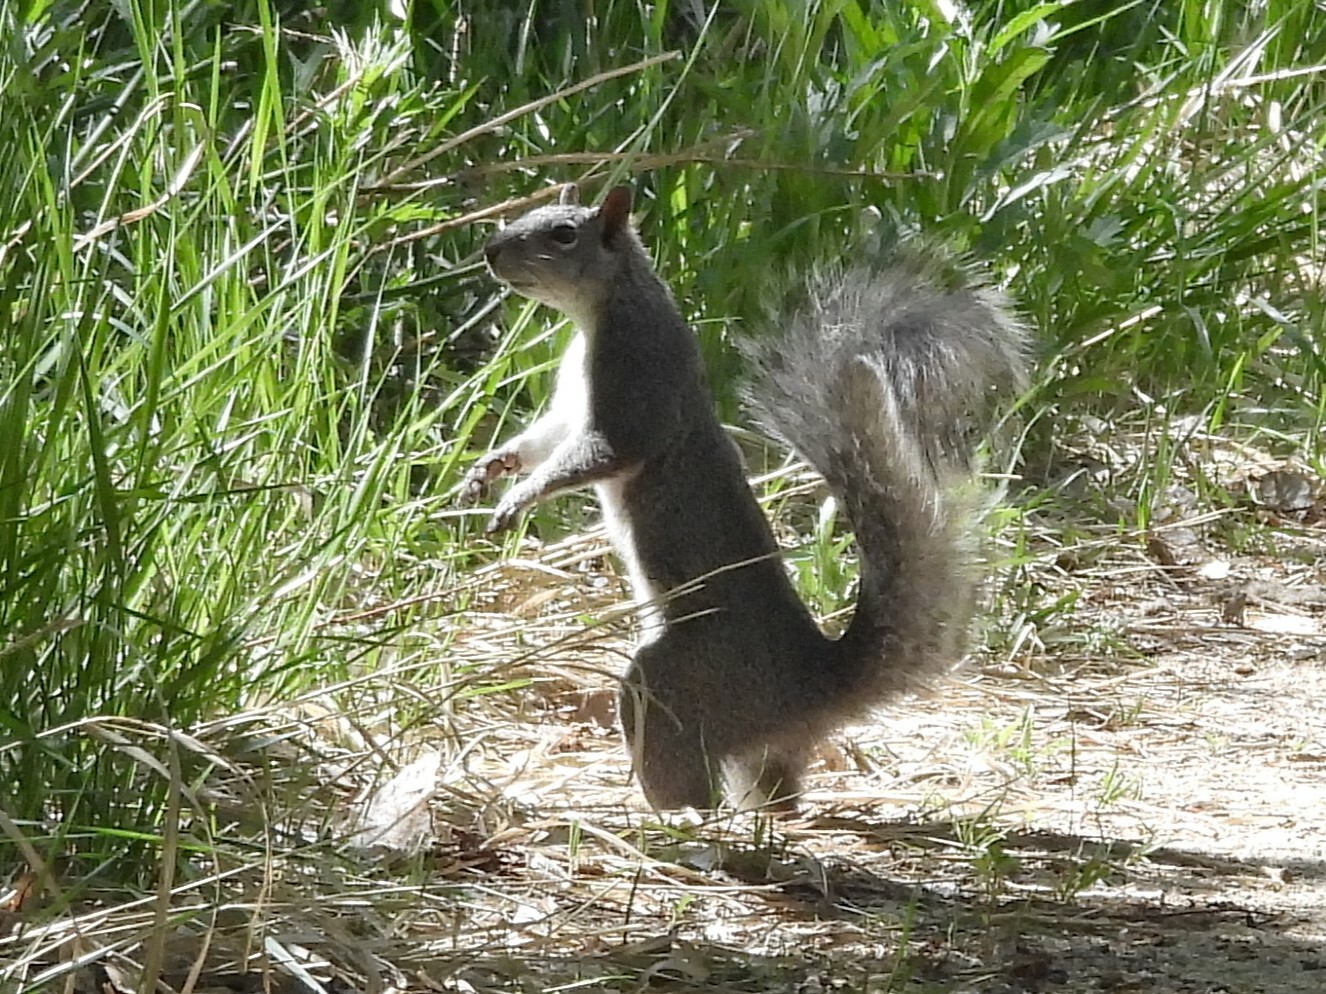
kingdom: Animalia
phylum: Chordata
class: Mammalia
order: Rodentia
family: Sciuridae
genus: Sciurus
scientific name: Sciurus griseus
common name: Western gray squirrel
